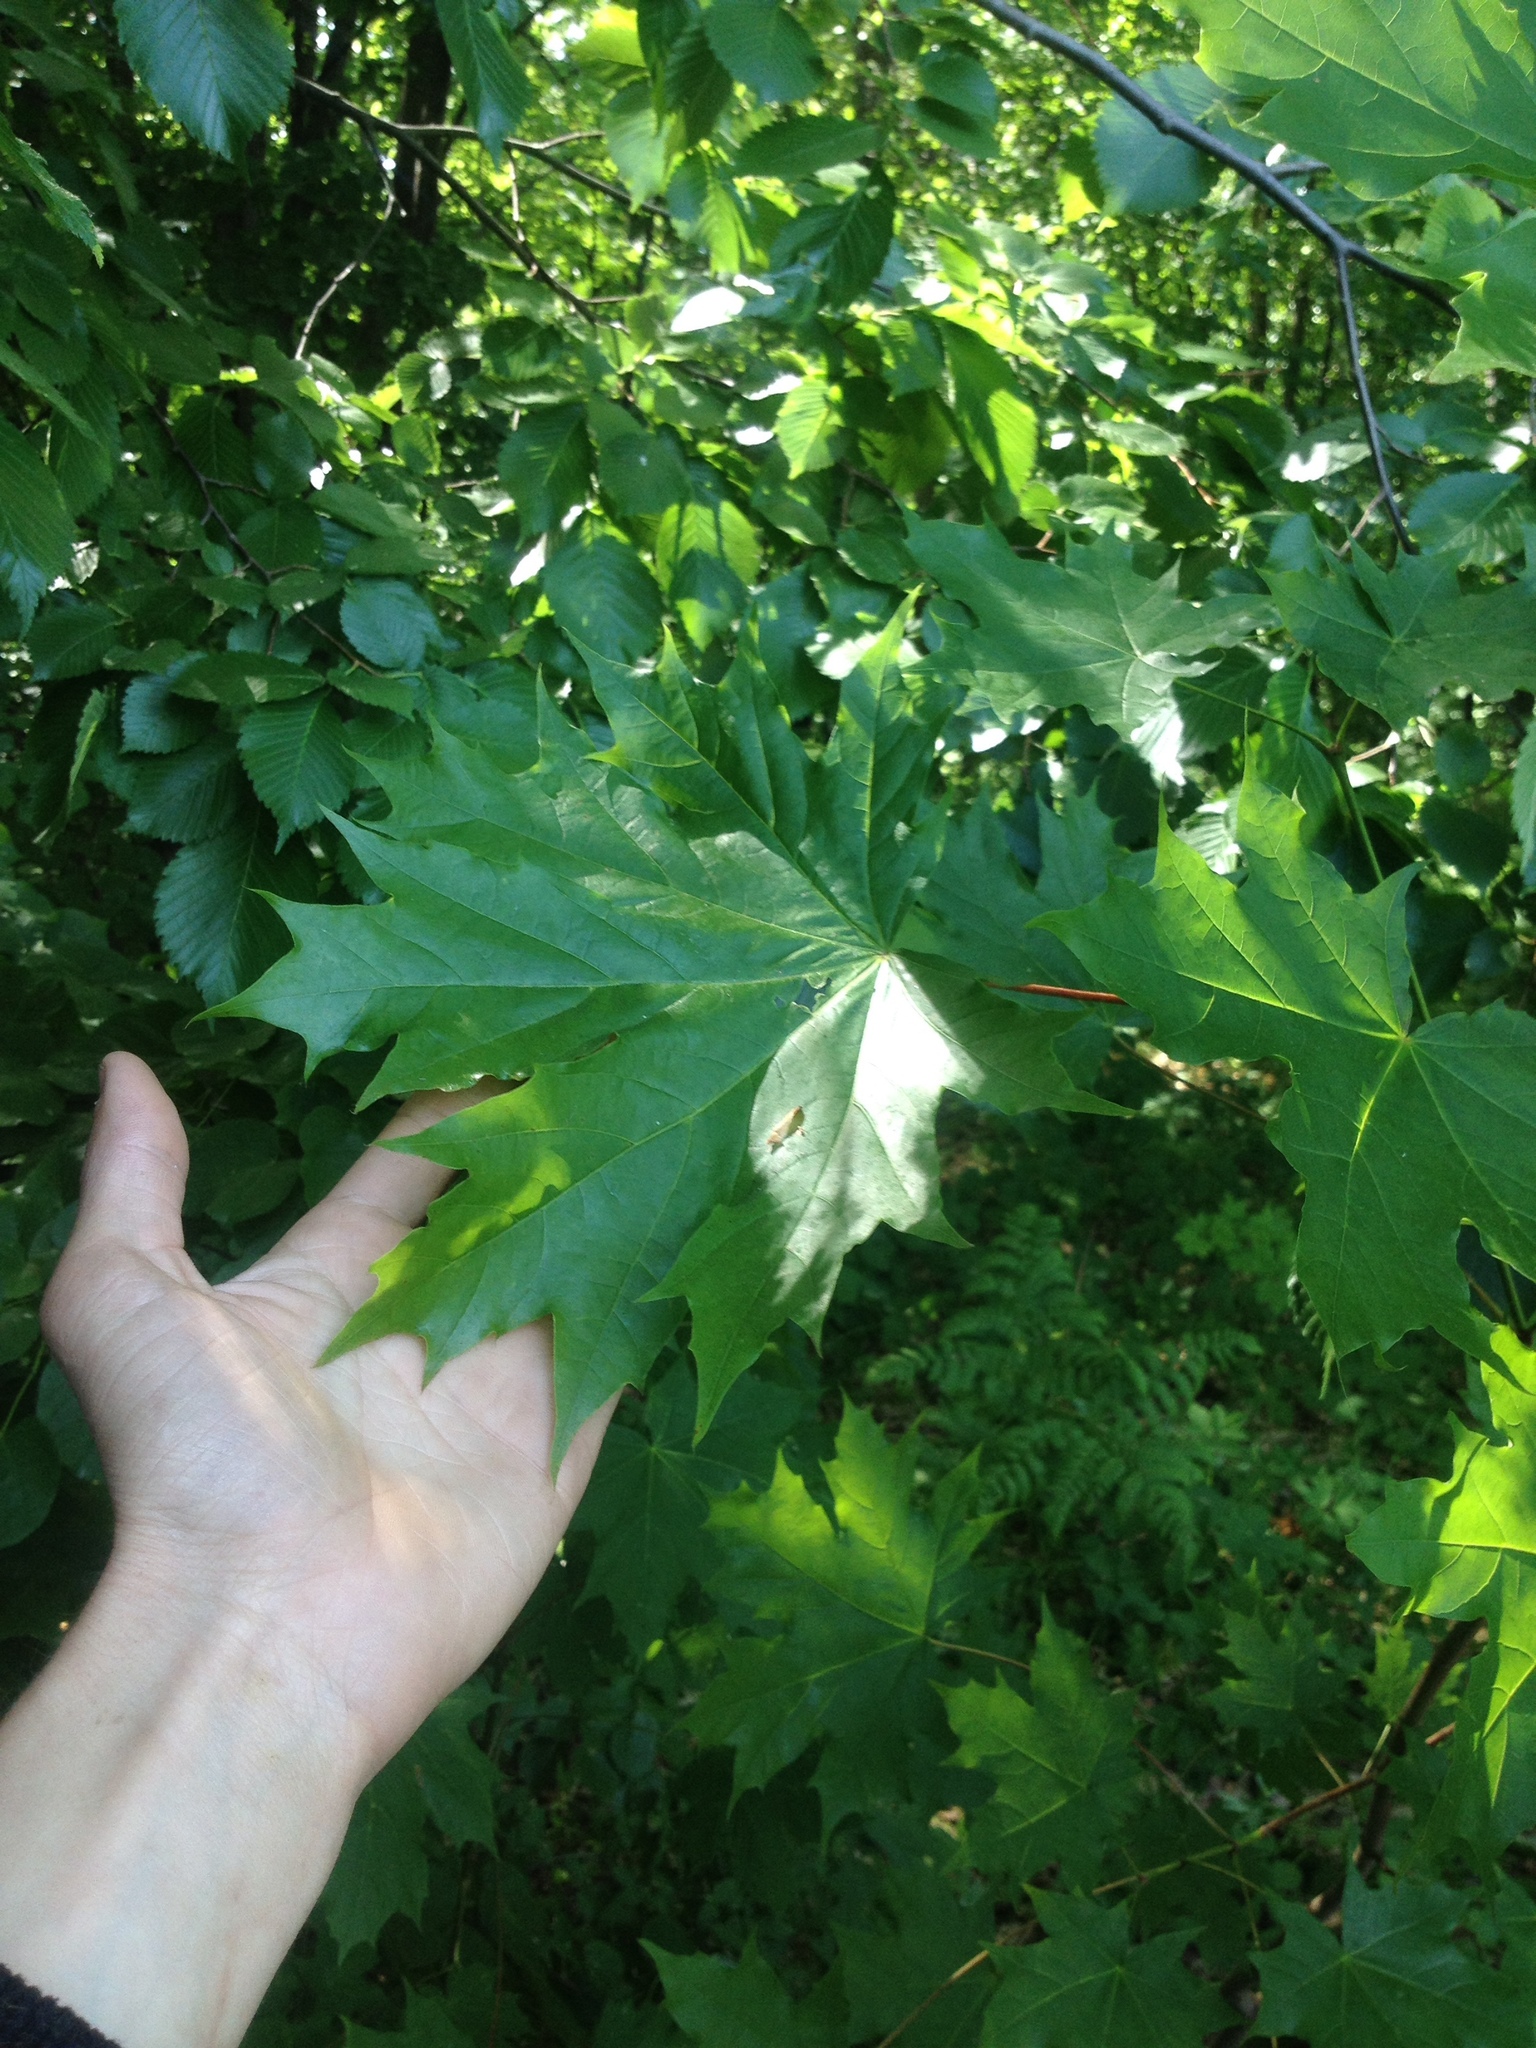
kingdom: Plantae
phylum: Tracheophyta
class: Magnoliopsida
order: Sapindales
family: Sapindaceae
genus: Acer
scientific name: Acer platanoides
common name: Norway maple
